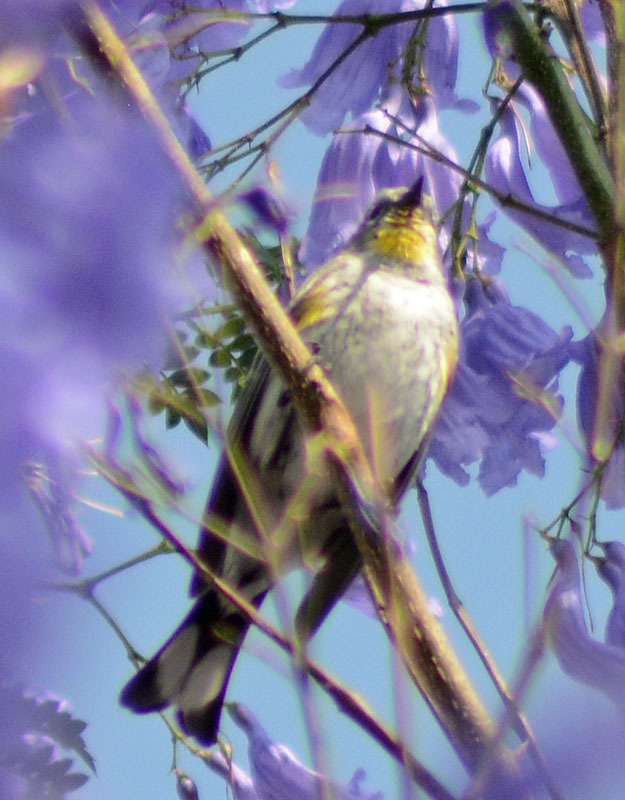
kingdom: Animalia
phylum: Chordata
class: Aves
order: Passeriformes
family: Parulidae
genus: Setophaga
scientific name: Setophaga coronata
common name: Myrtle warbler
